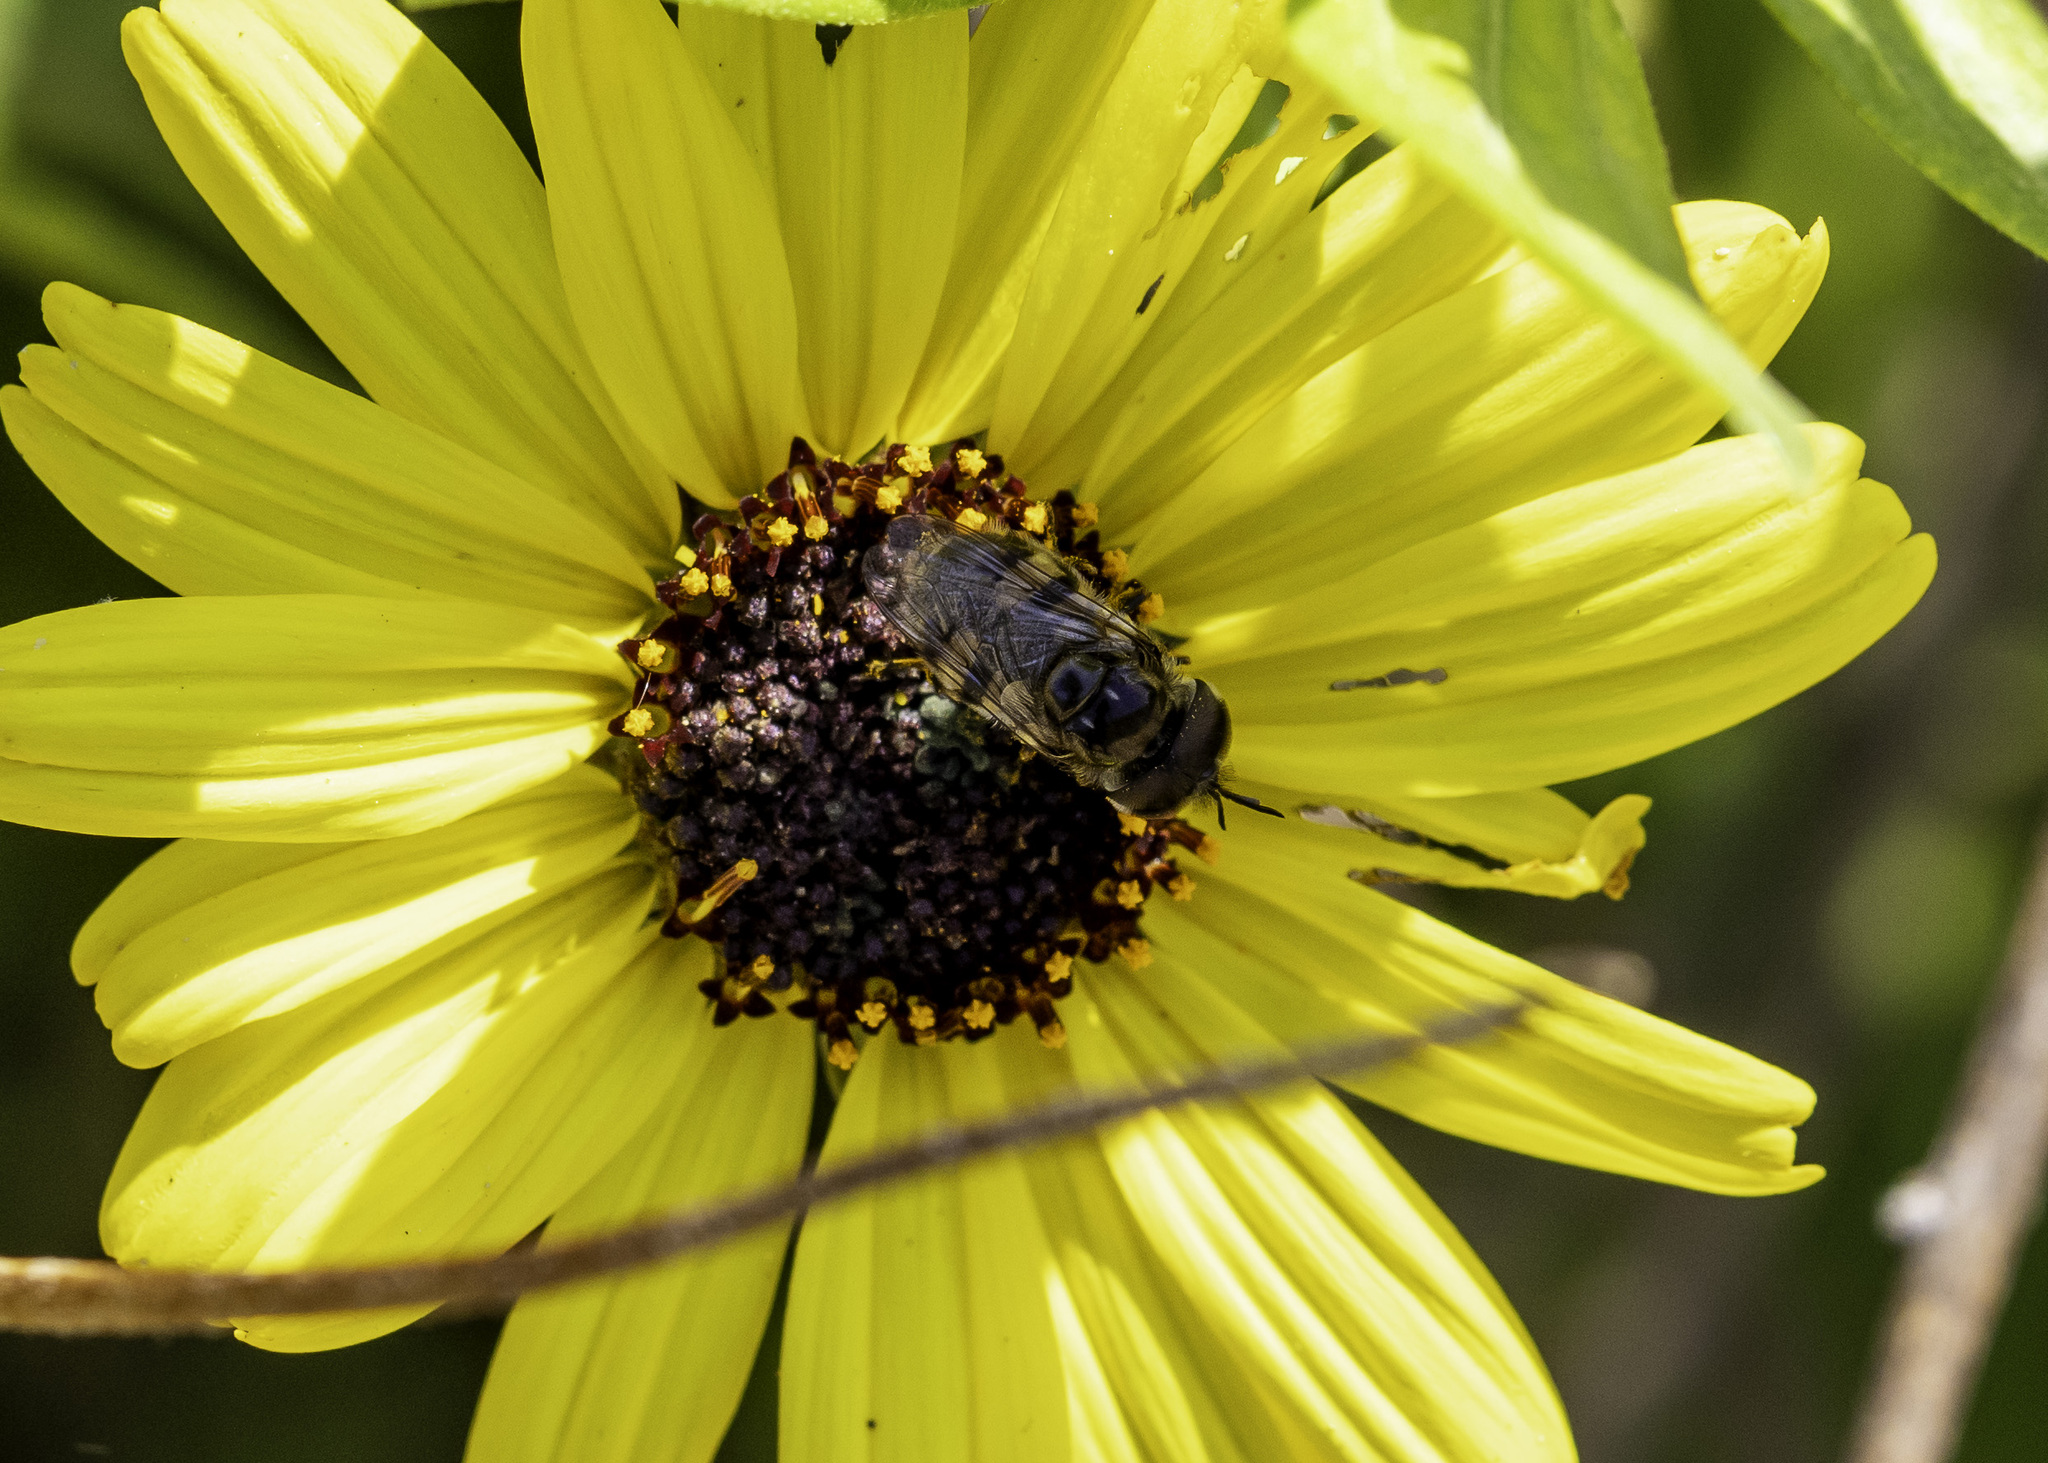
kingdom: Animalia
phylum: Arthropoda
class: Insecta
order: Diptera
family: Syrphidae
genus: Copestylum
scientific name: Copestylum marginatum
